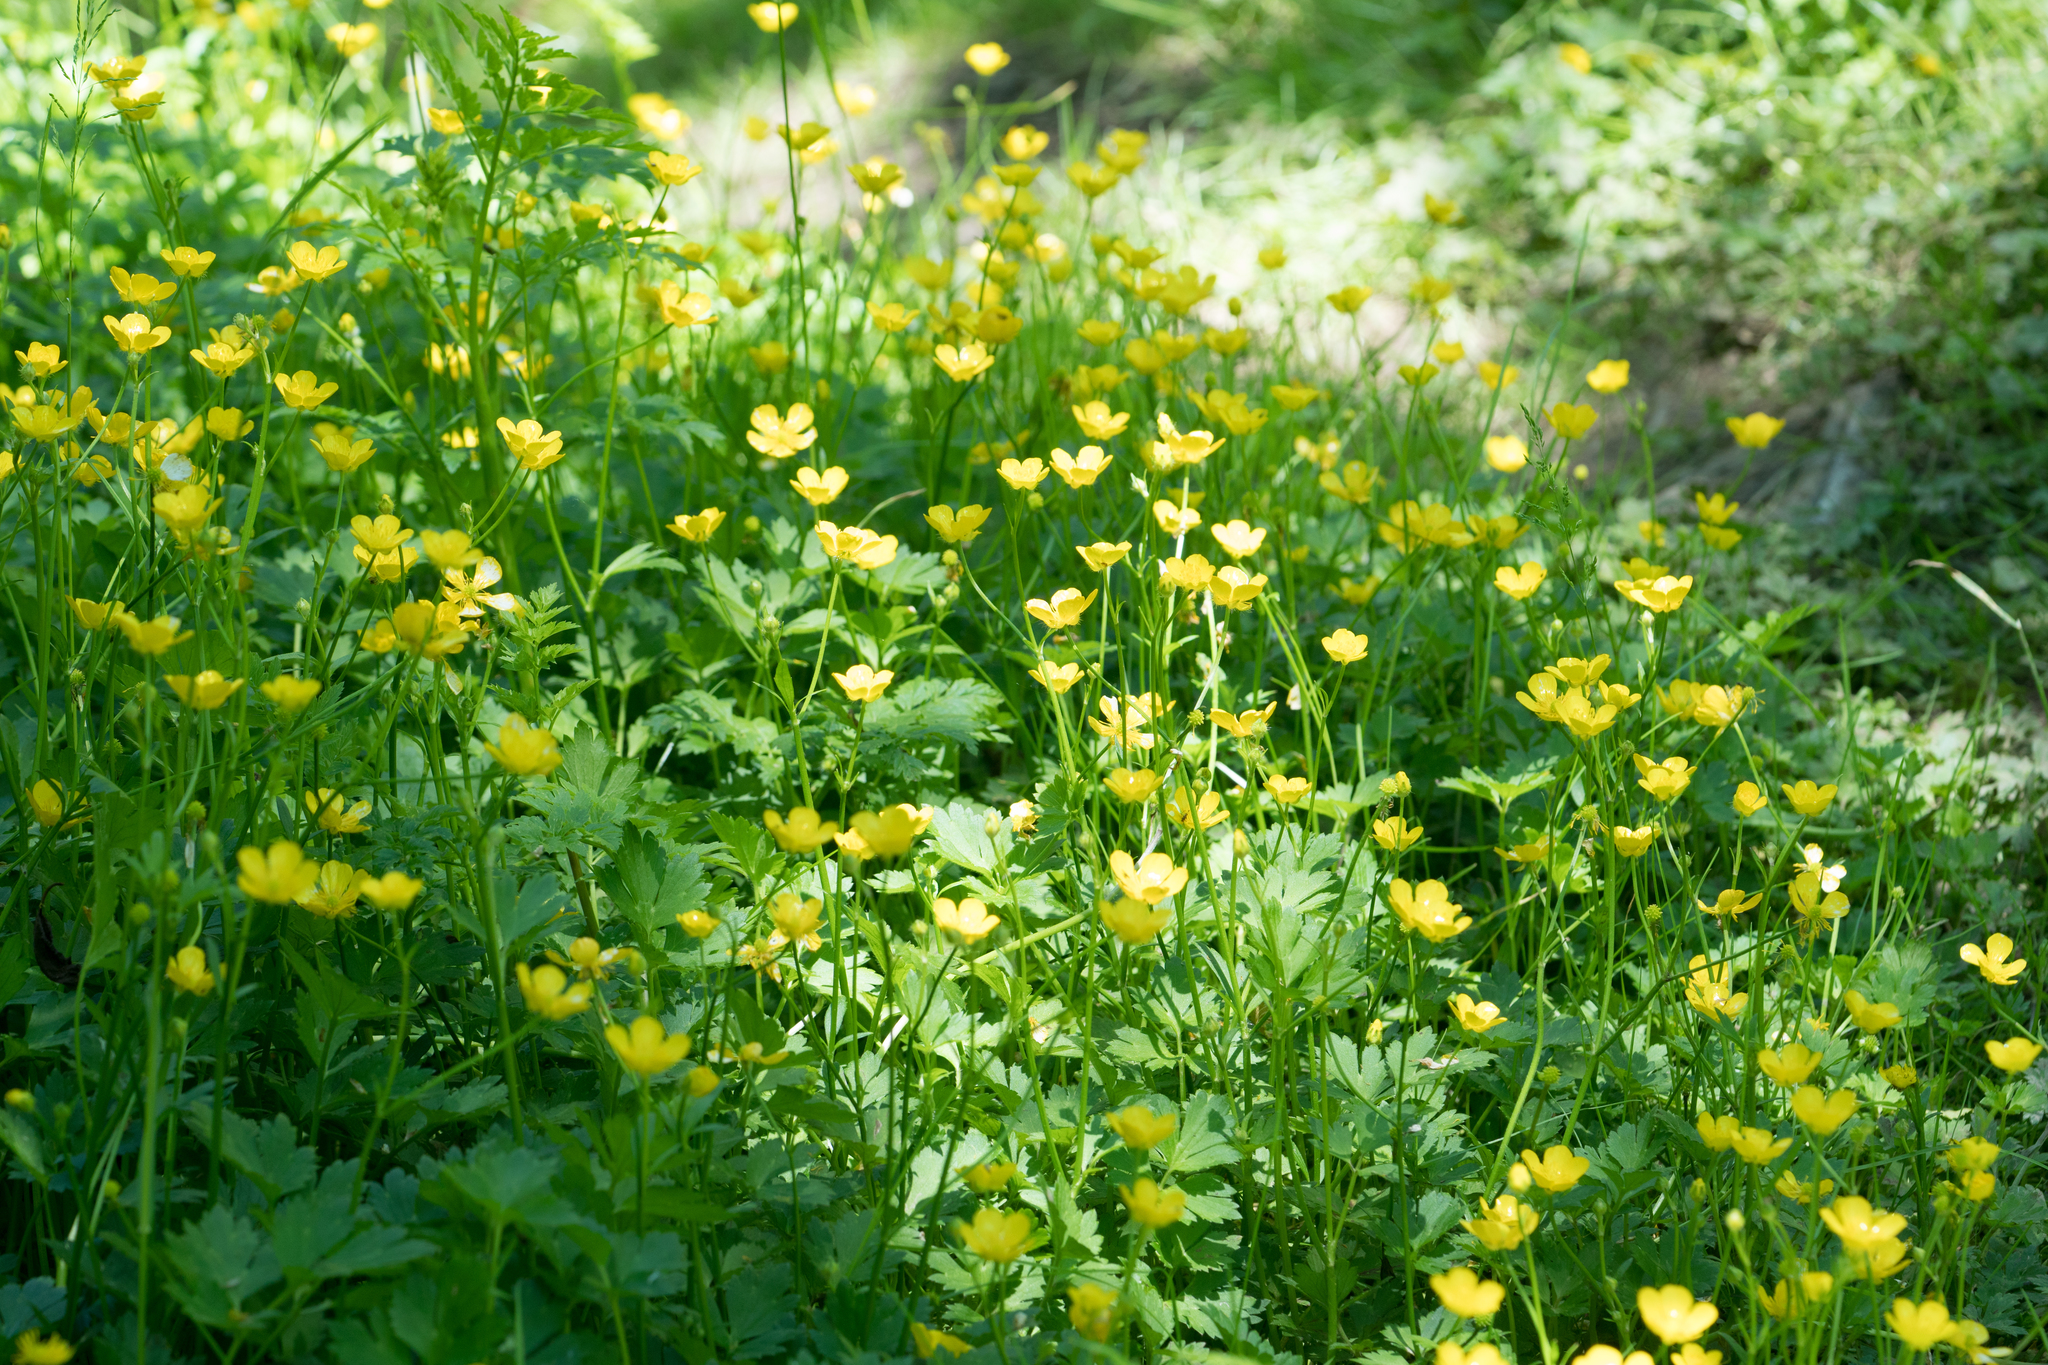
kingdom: Plantae
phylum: Tracheophyta
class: Magnoliopsida
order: Ranunculales
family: Ranunculaceae
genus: Ranunculus
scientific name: Ranunculus repens
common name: Creeping buttercup
